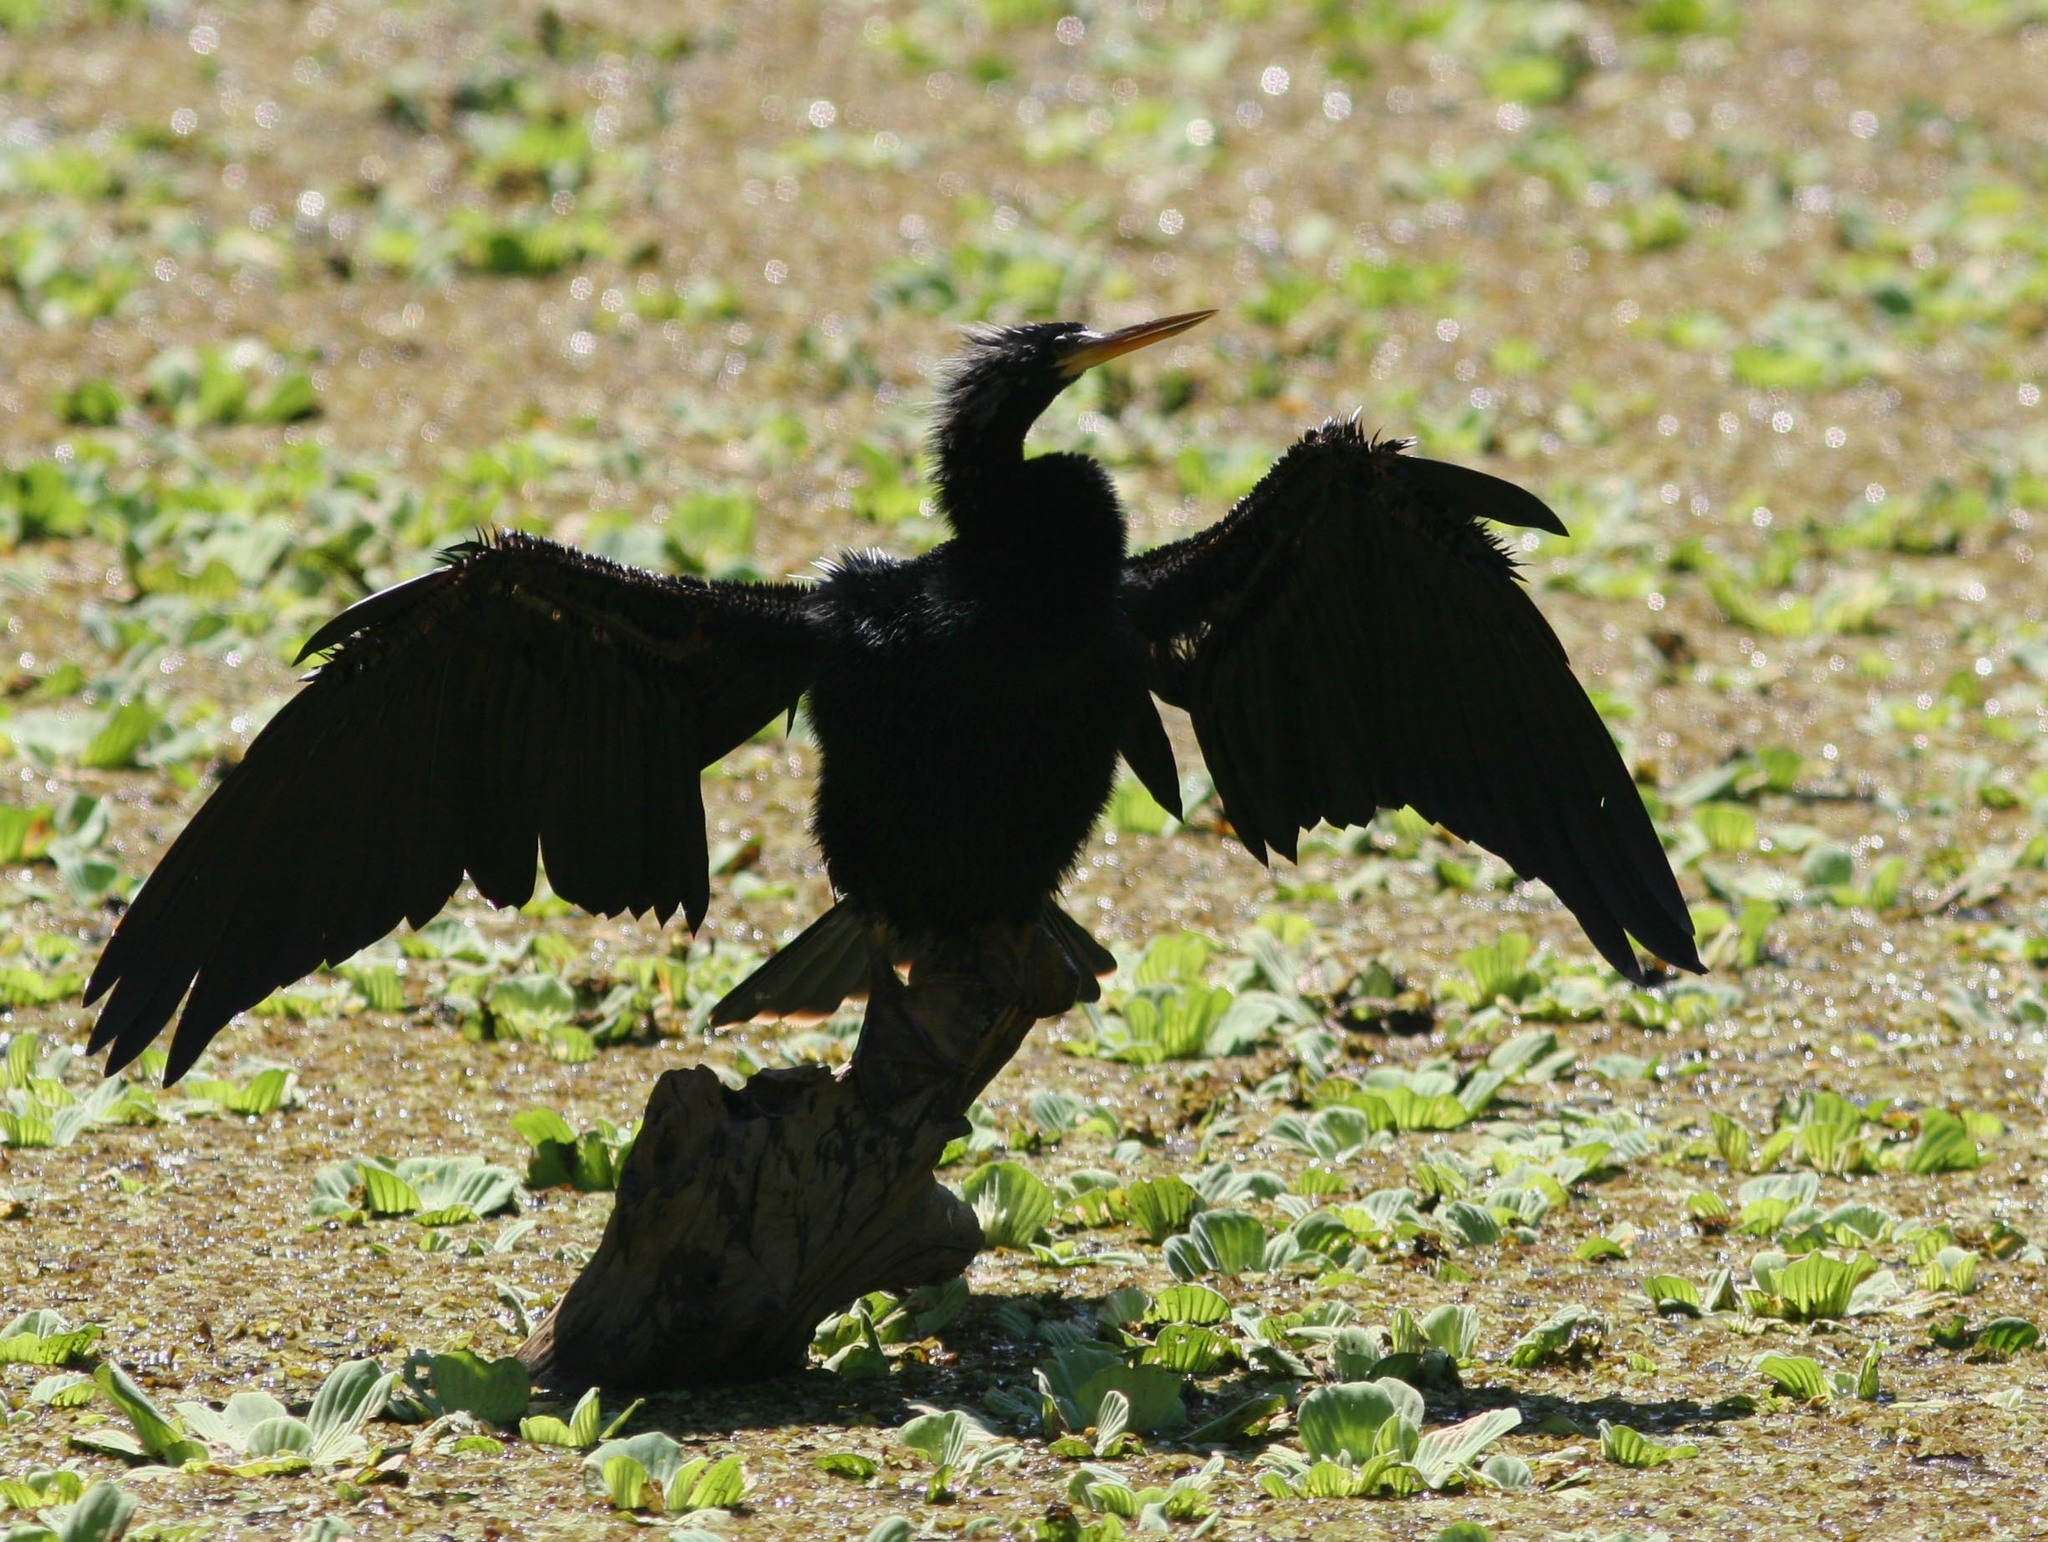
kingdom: Animalia
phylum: Chordata
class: Aves
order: Suliformes
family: Anhingidae
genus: Anhinga
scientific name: Anhinga anhinga
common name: Anhinga
